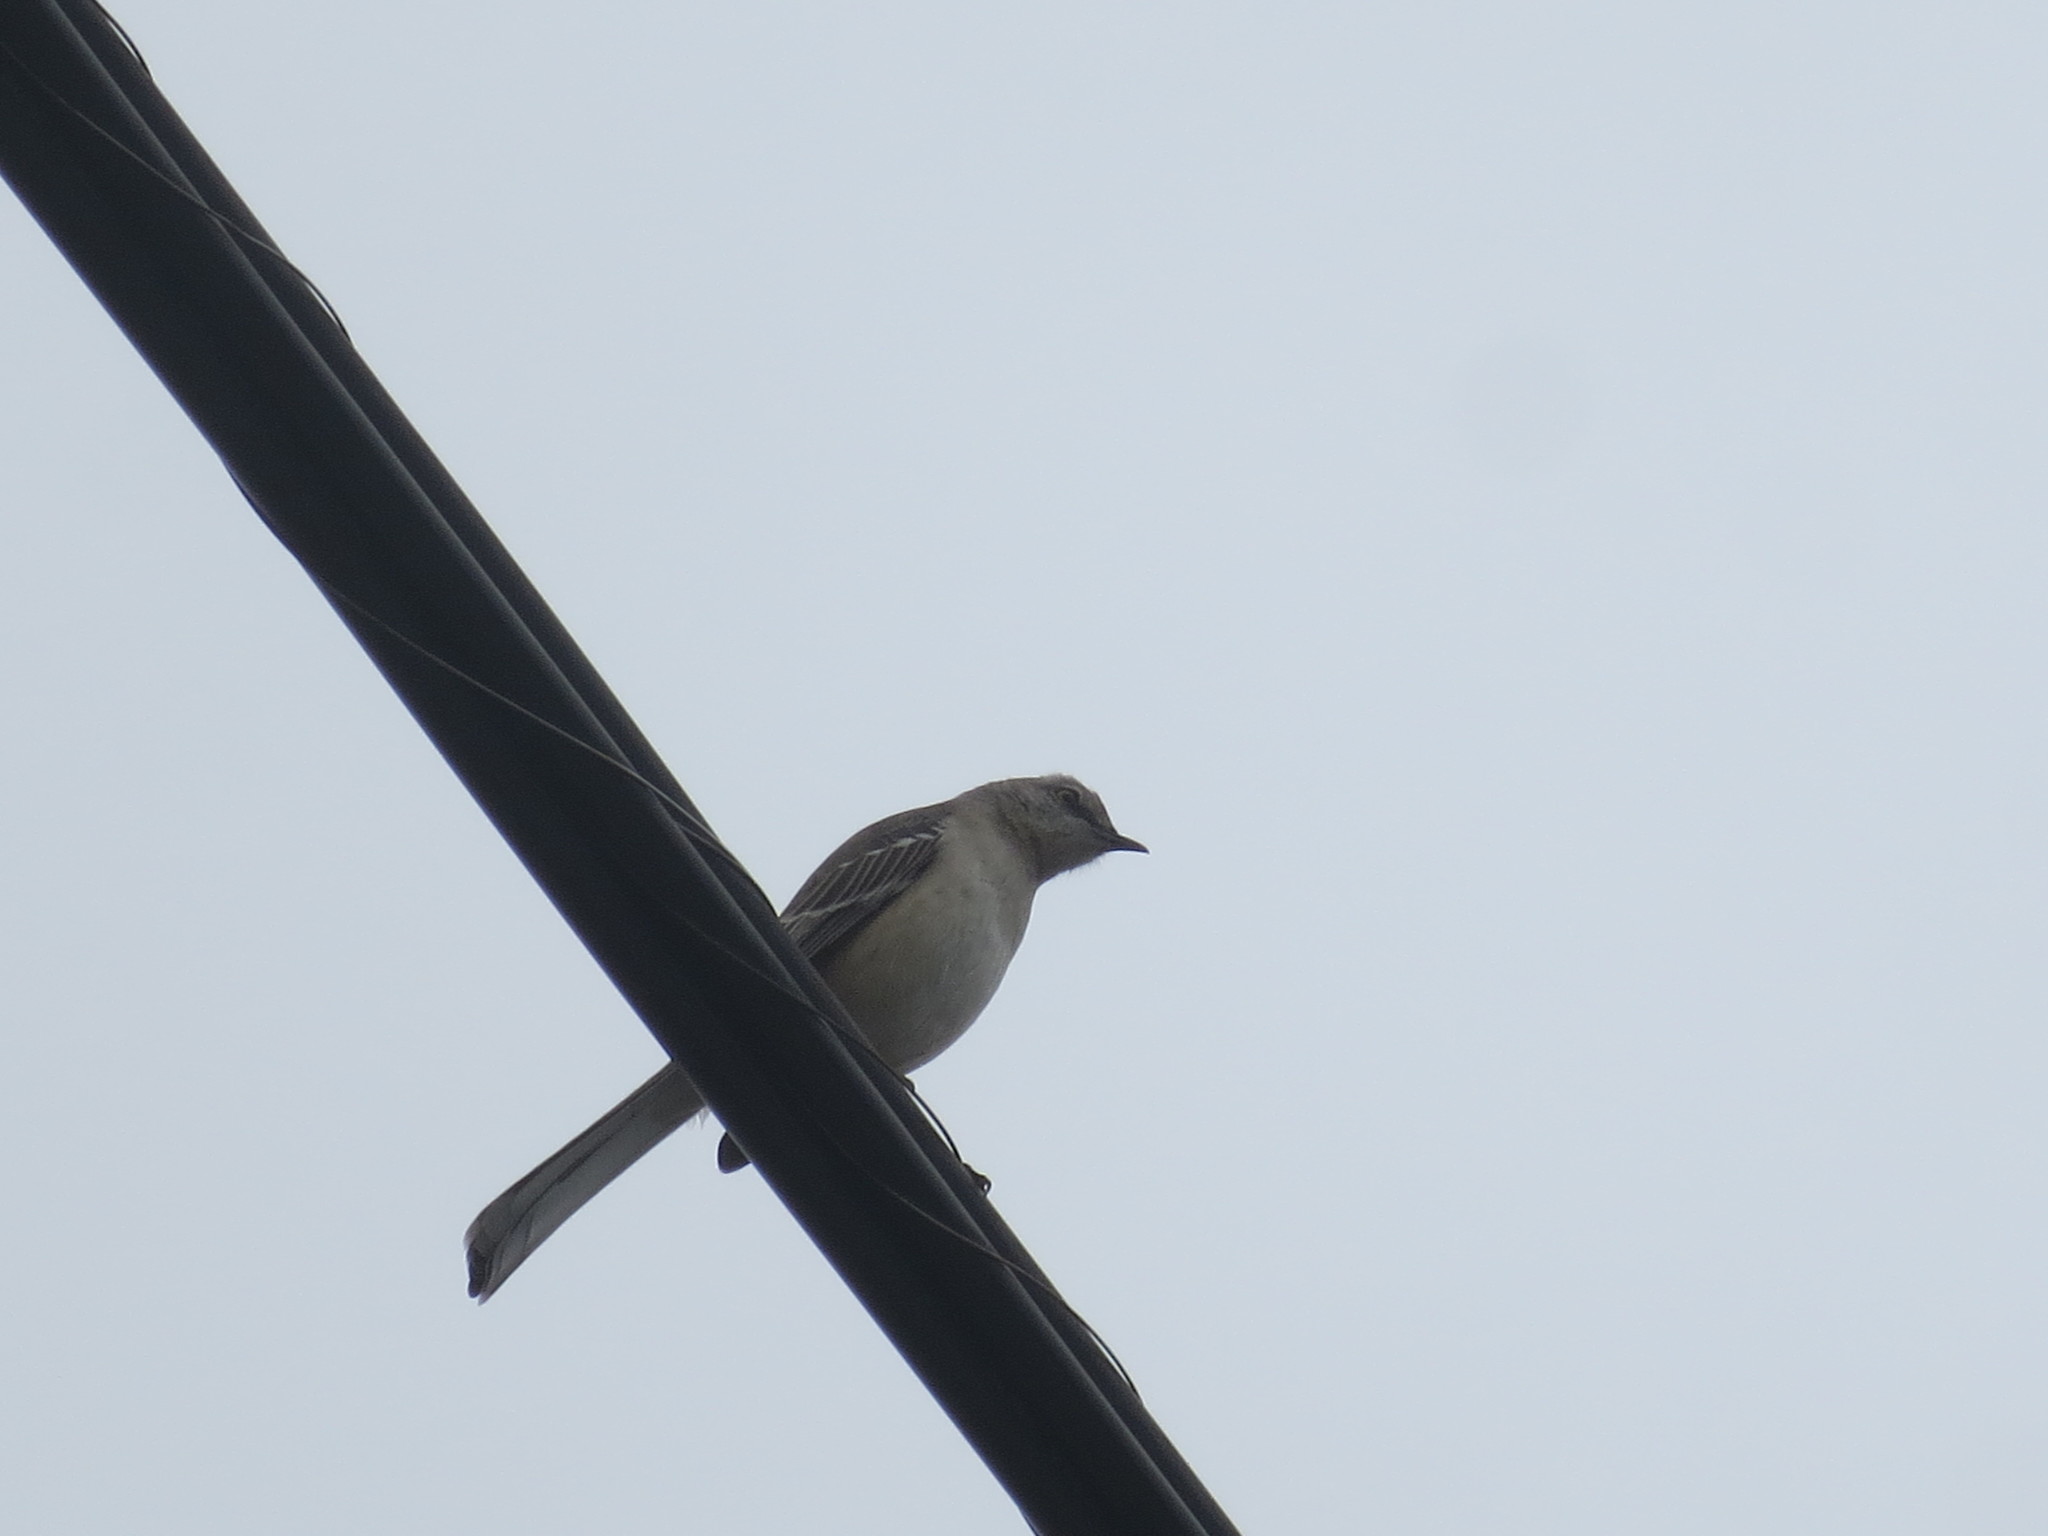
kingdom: Animalia
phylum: Chordata
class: Aves
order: Passeriformes
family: Mimidae
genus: Mimus
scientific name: Mimus polyglottos
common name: Northern mockingbird
